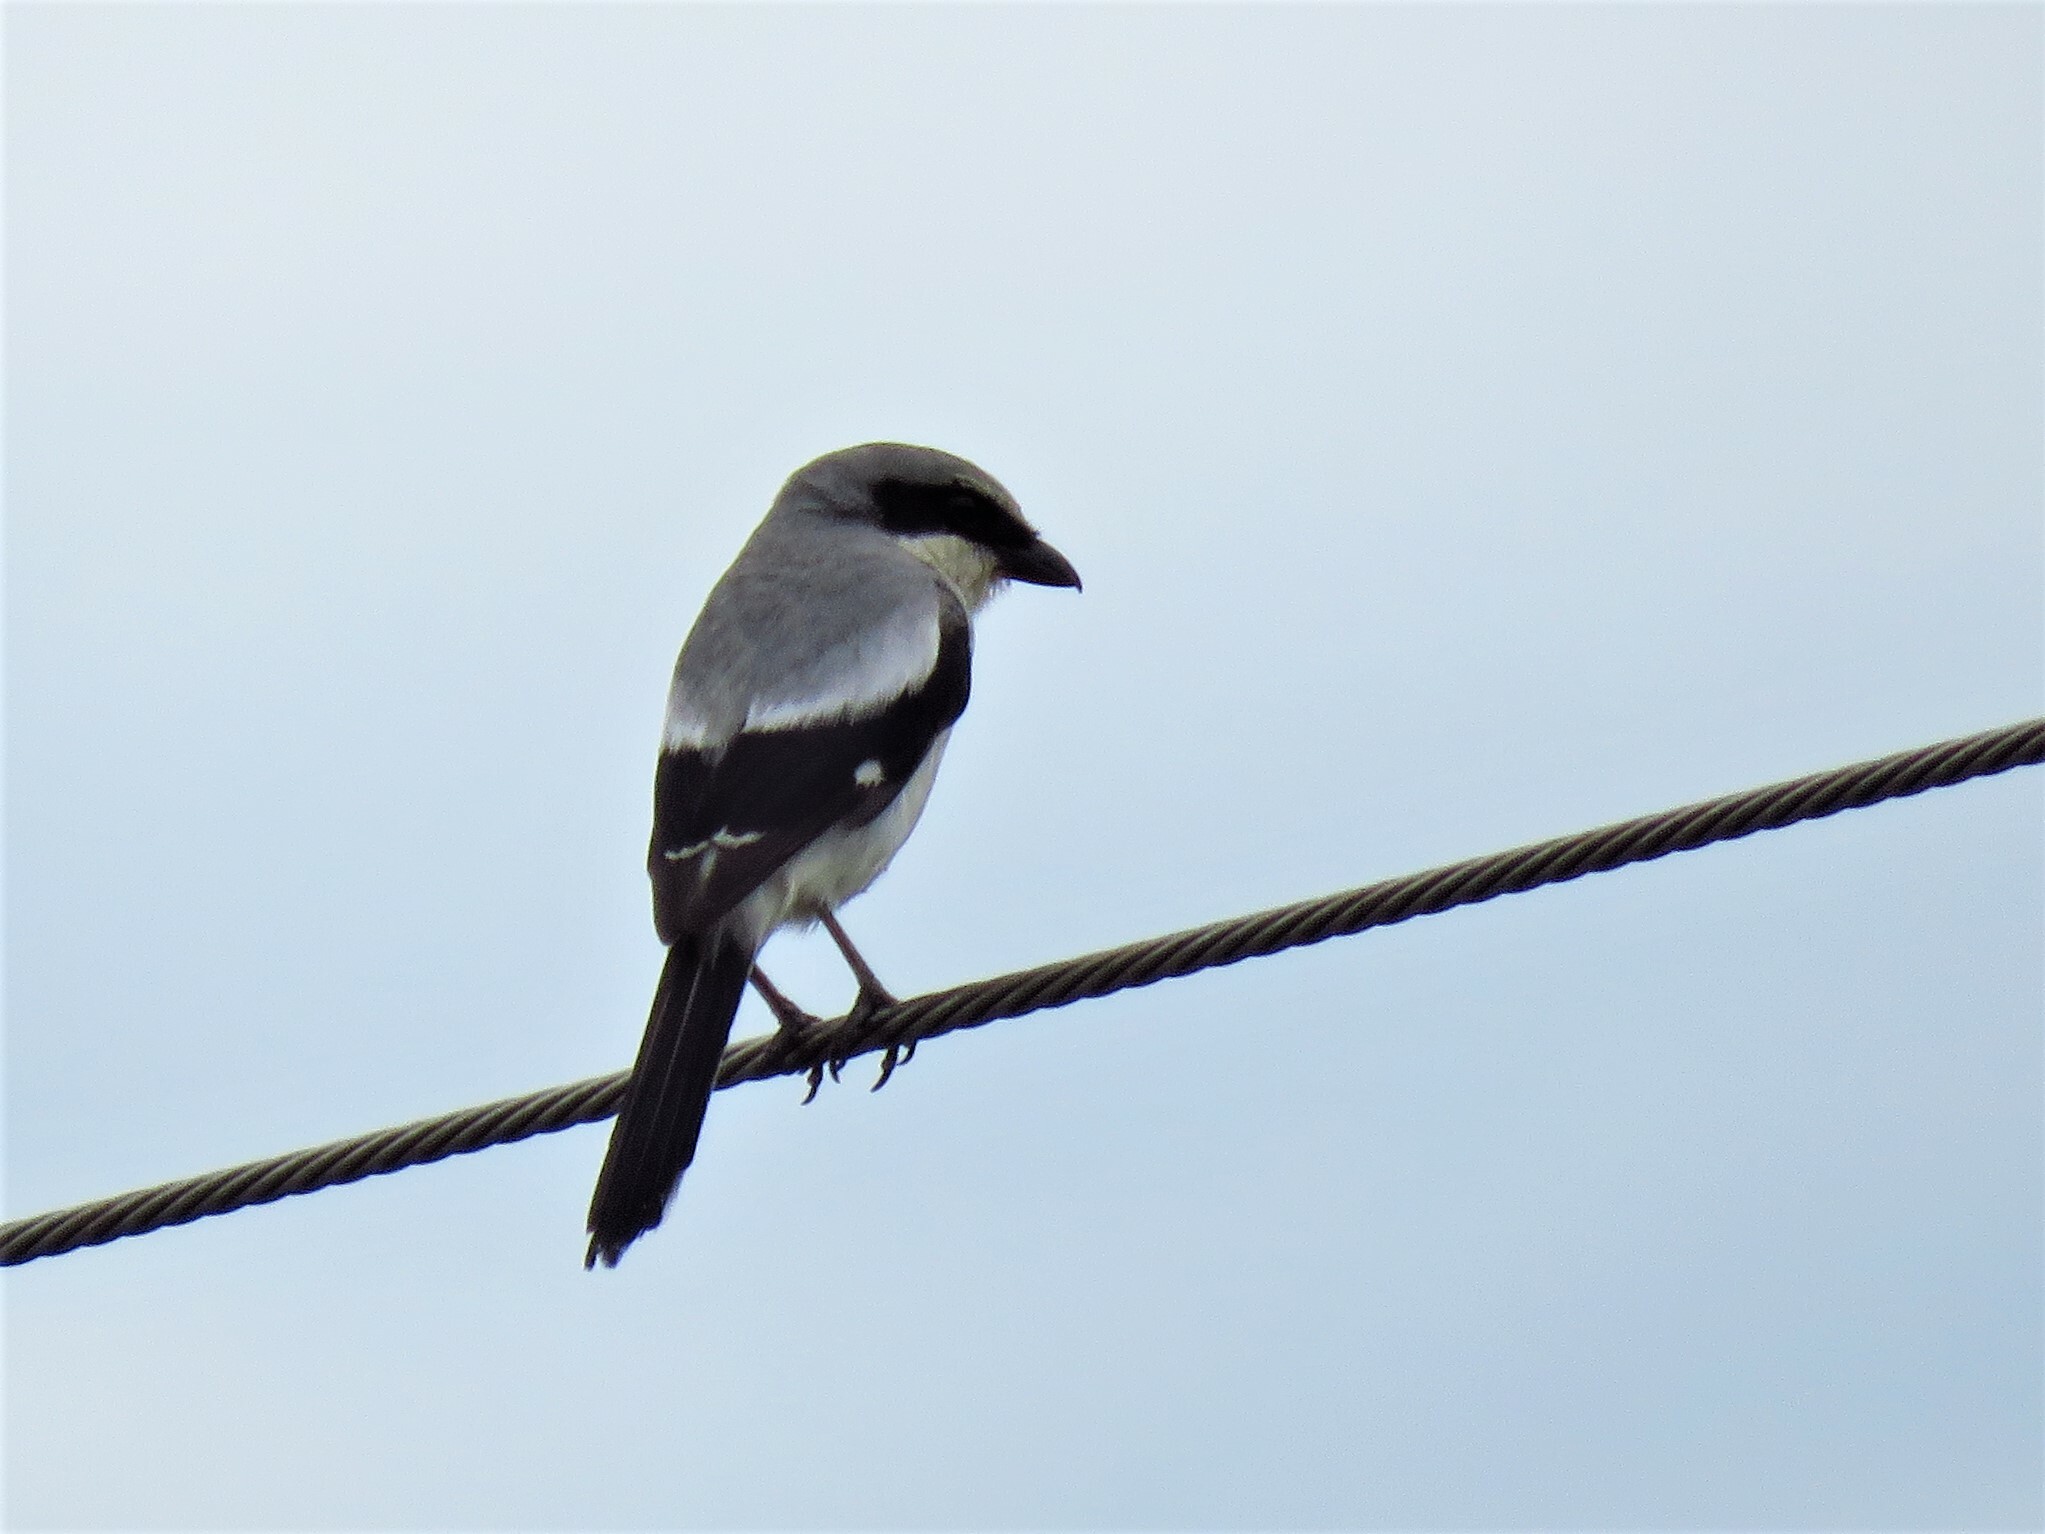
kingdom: Animalia
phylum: Chordata
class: Aves
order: Passeriformes
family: Laniidae
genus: Lanius
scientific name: Lanius ludovicianus
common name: Loggerhead shrike
